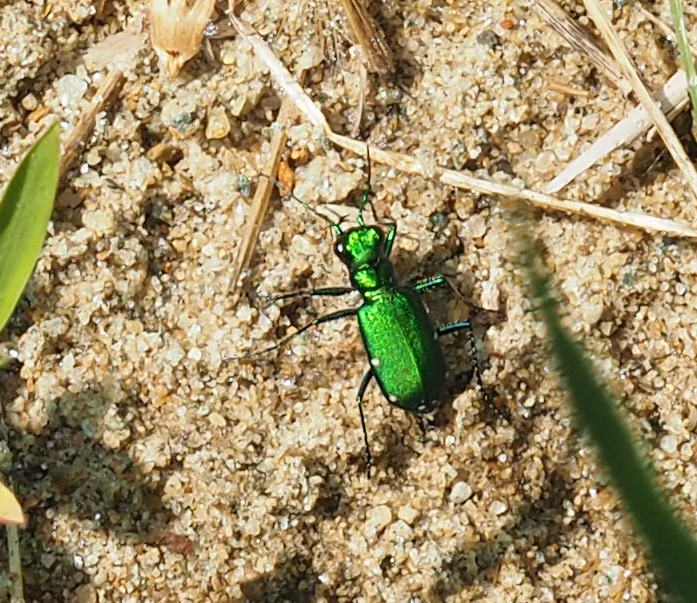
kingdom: Animalia
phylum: Arthropoda
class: Insecta
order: Coleoptera
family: Carabidae
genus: Cicindela
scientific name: Cicindela sexguttata
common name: Six-spotted tiger beetle
